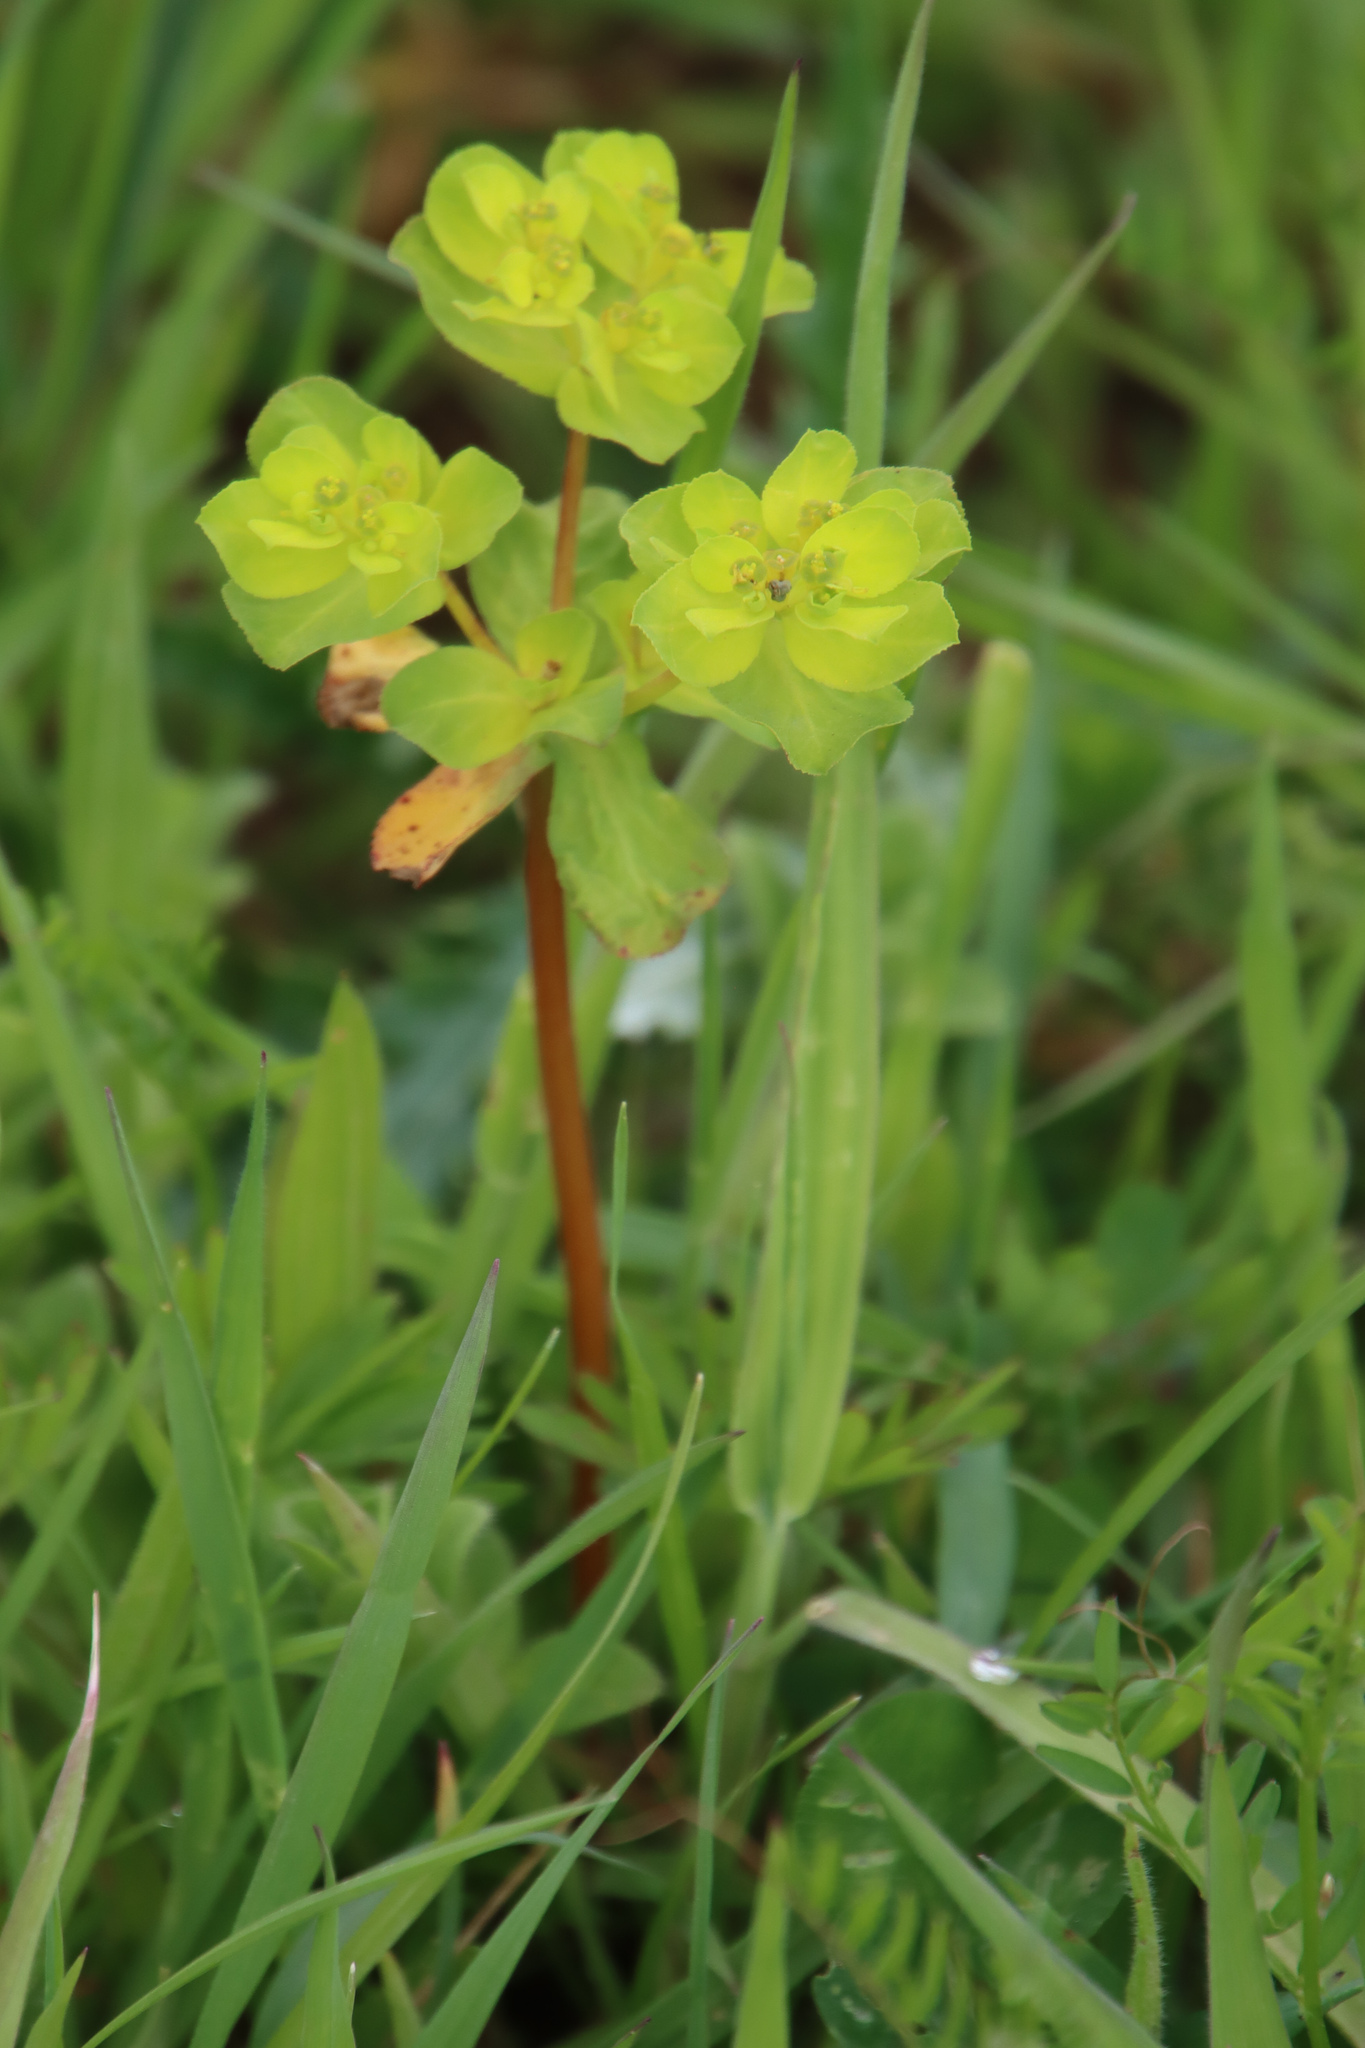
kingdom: Plantae
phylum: Tracheophyta
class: Magnoliopsida
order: Malpighiales
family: Euphorbiaceae
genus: Euphorbia
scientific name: Euphorbia helioscopia
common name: Sun spurge
